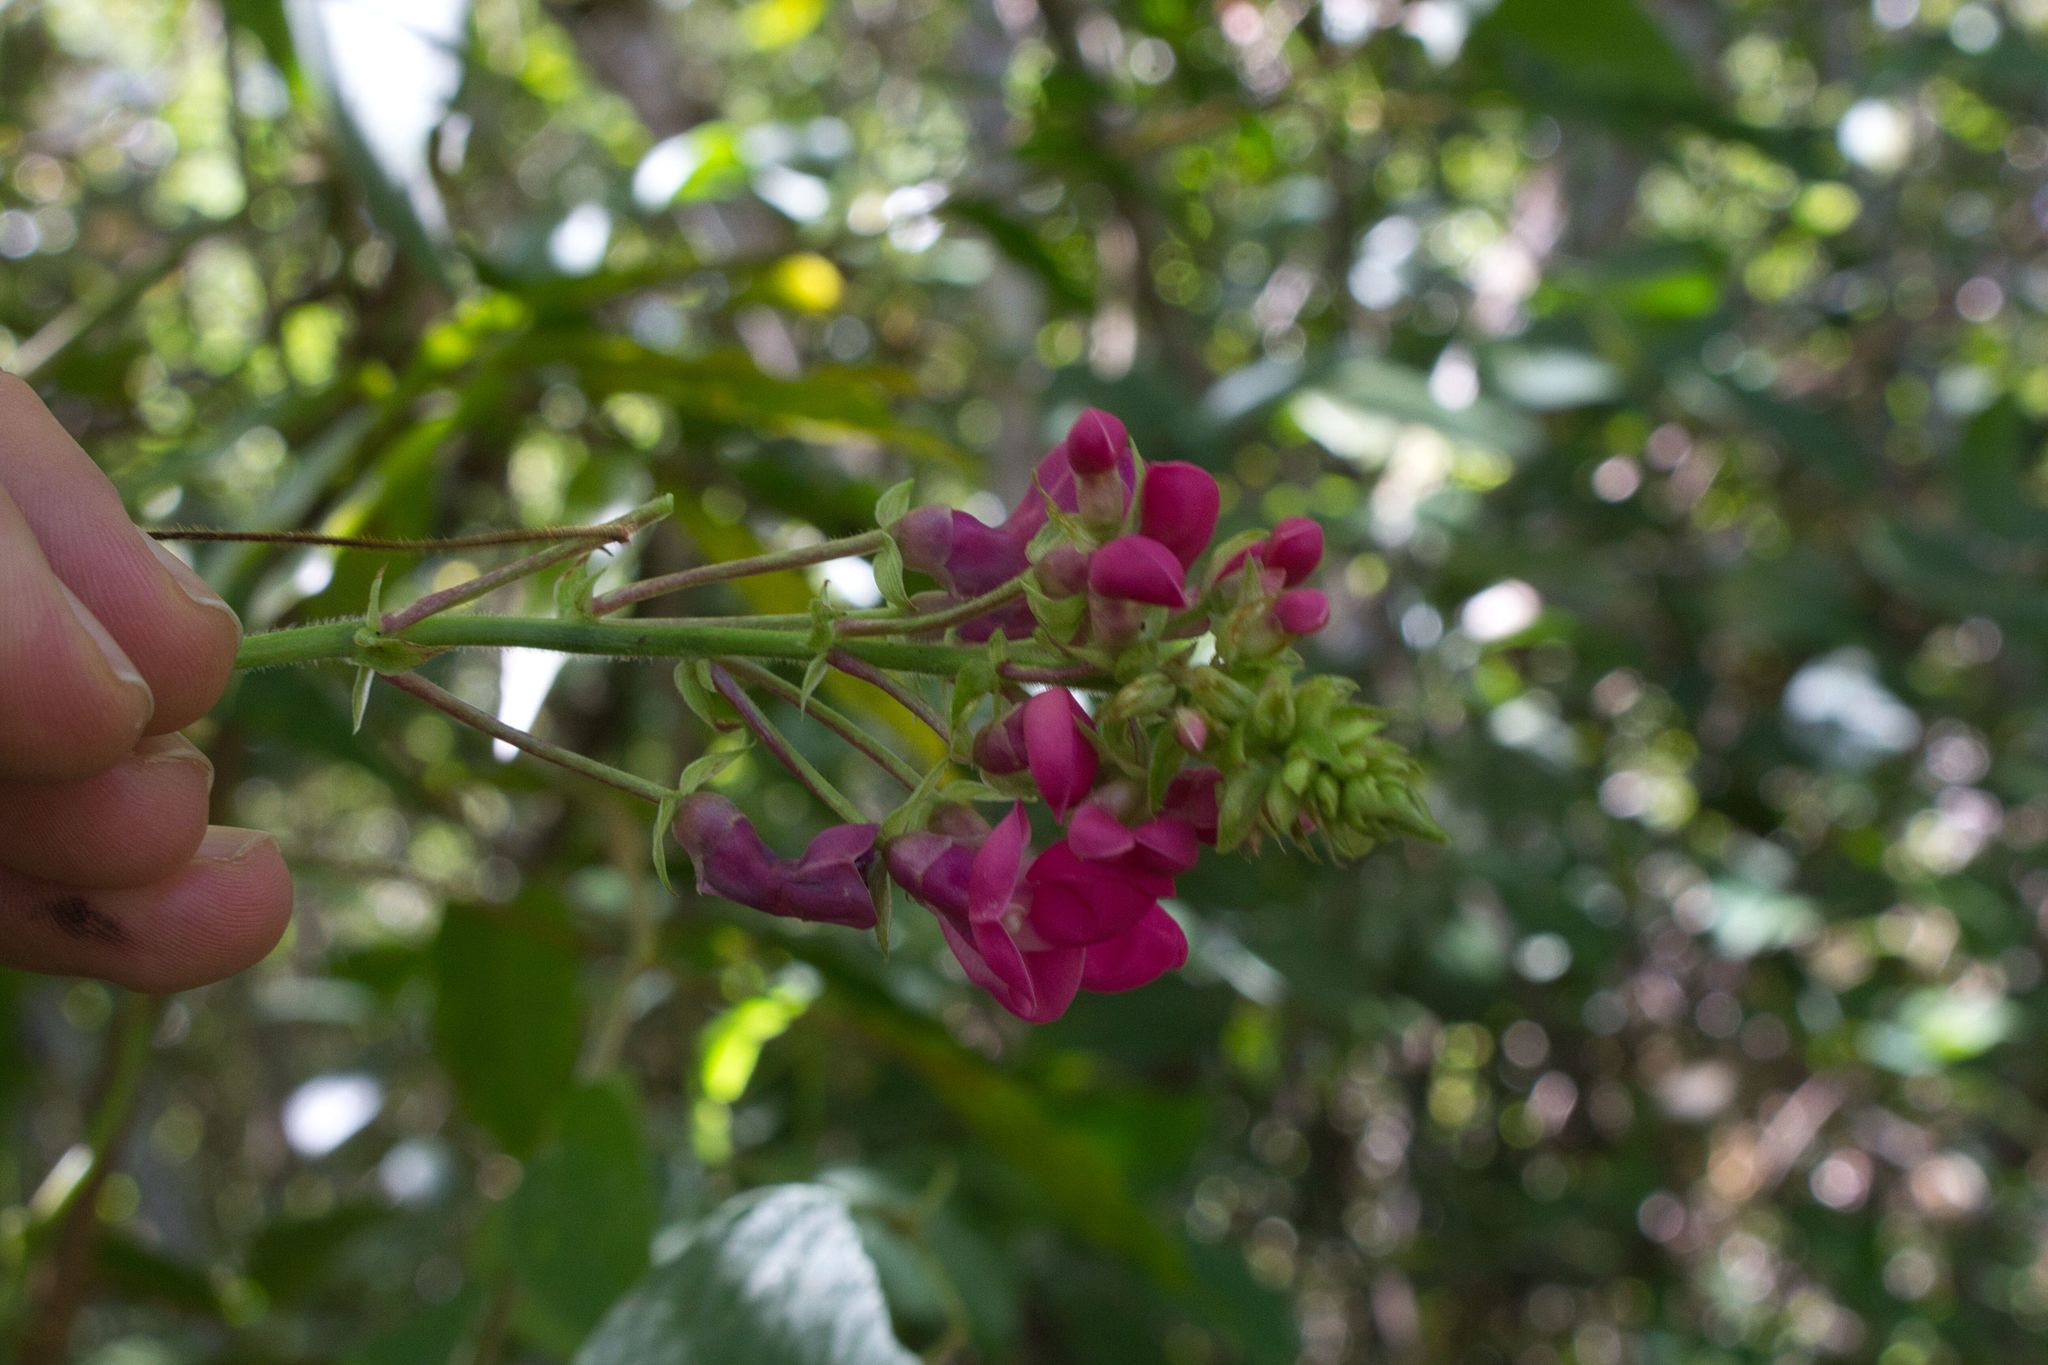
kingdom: Plantae
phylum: Tracheophyta
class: Magnoliopsida
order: Fabales
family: Fabaceae
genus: Phaseolus
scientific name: Phaseolus costaricensis
